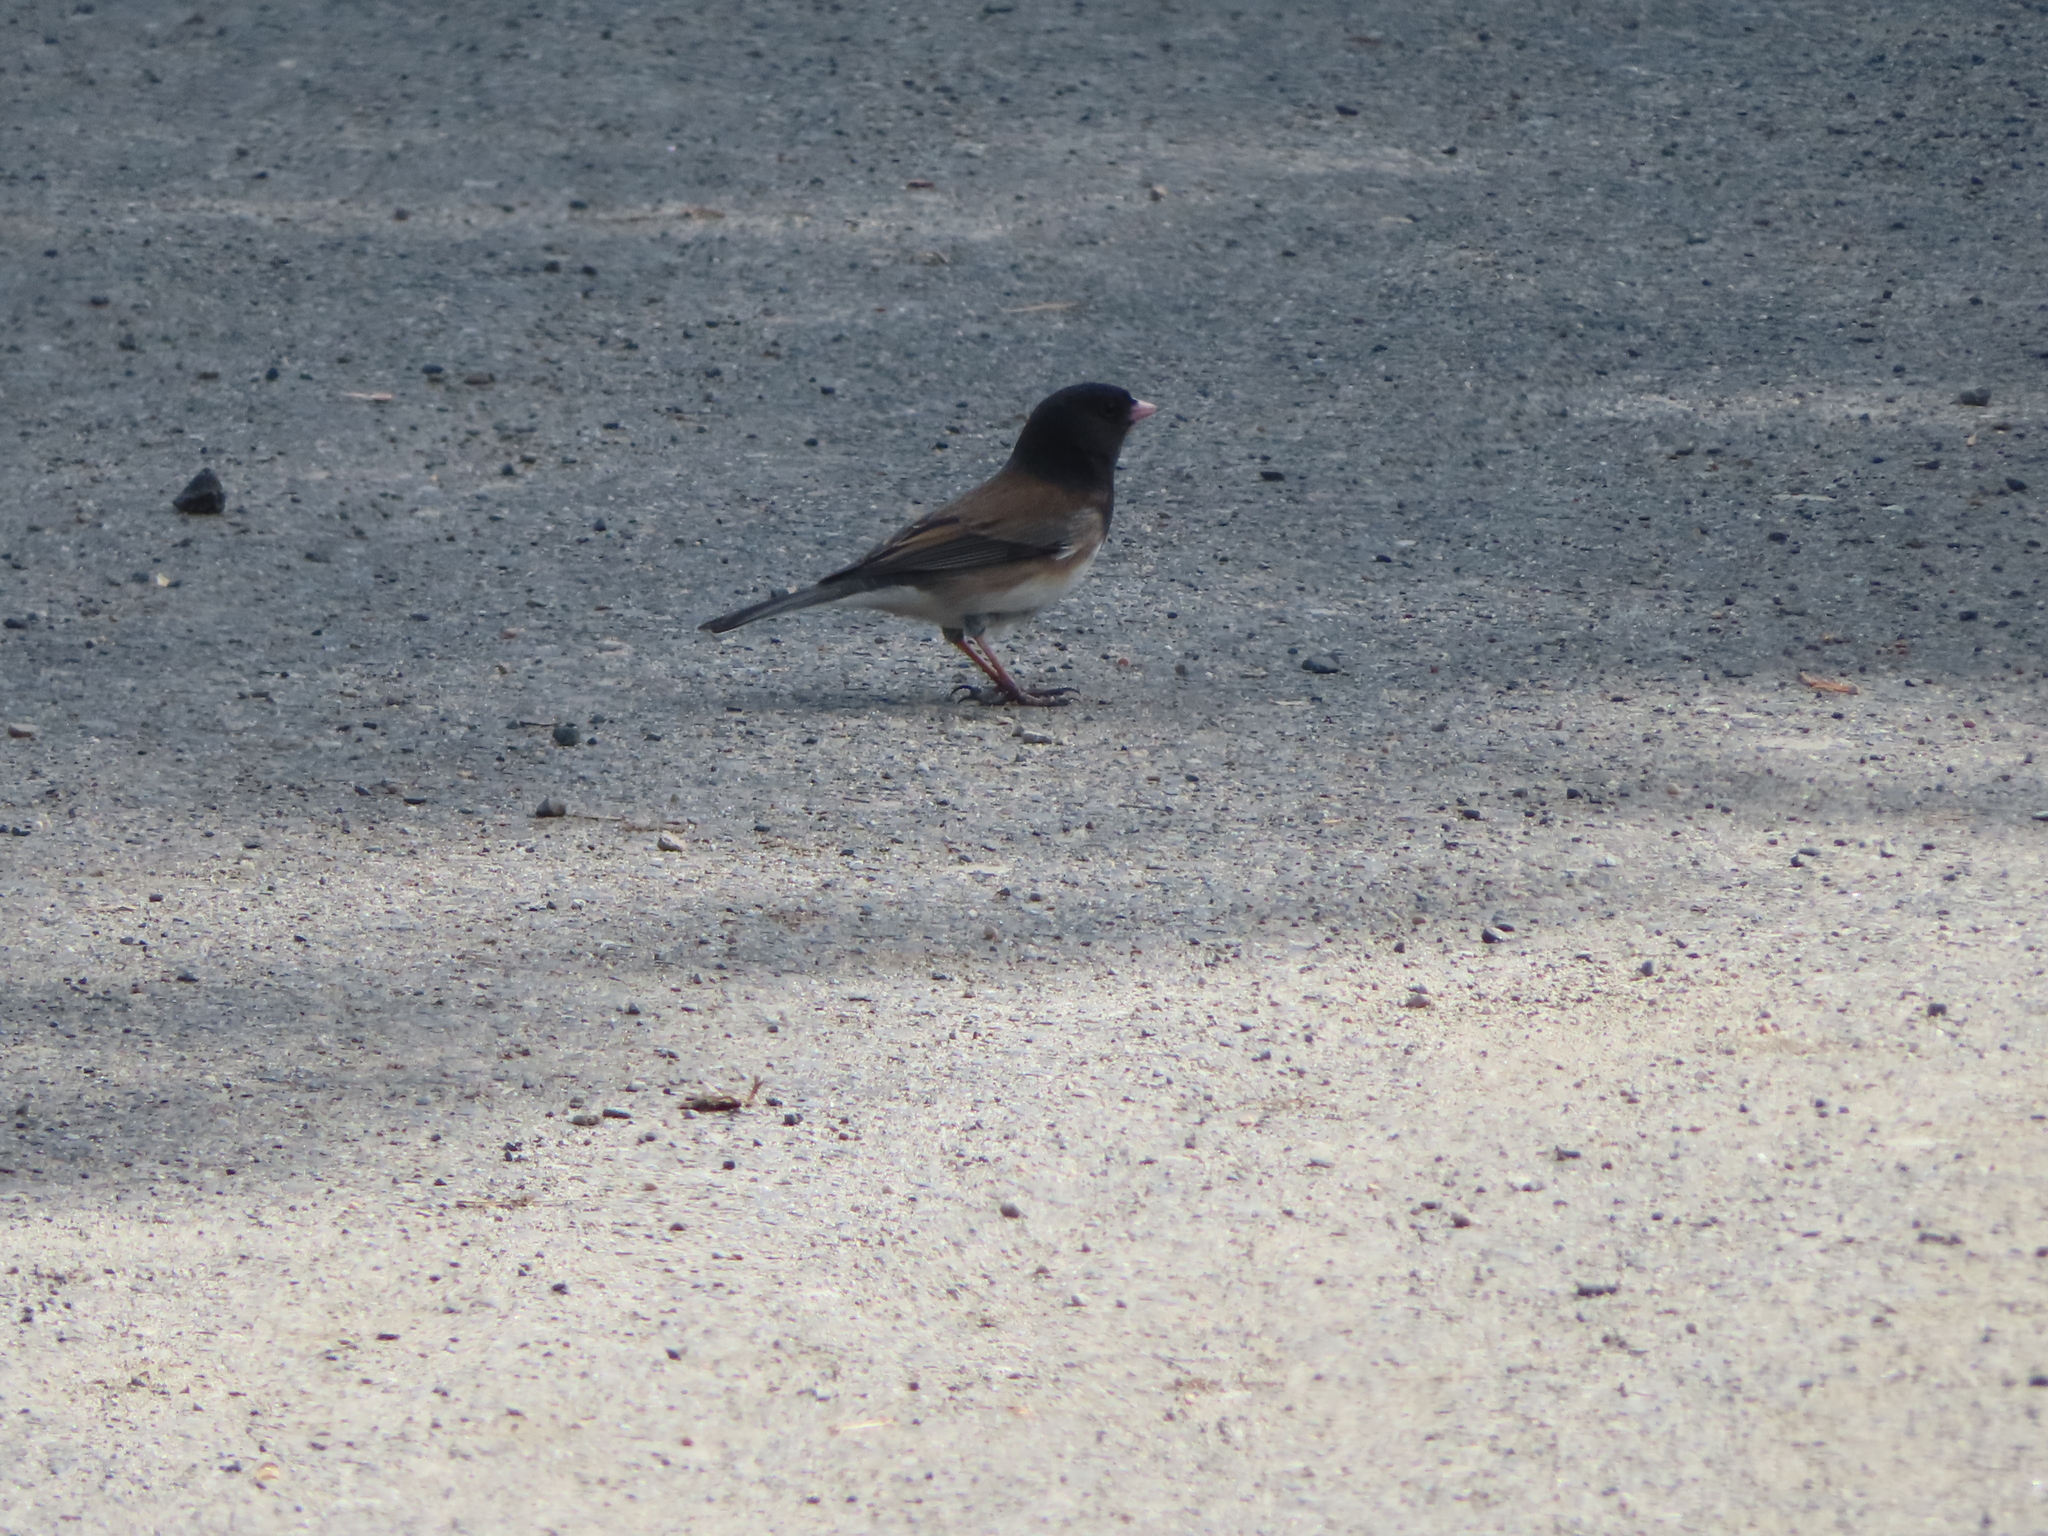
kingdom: Animalia
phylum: Chordata
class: Aves
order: Passeriformes
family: Passerellidae
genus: Junco
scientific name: Junco hyemalis
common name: Dark-eyed junco
